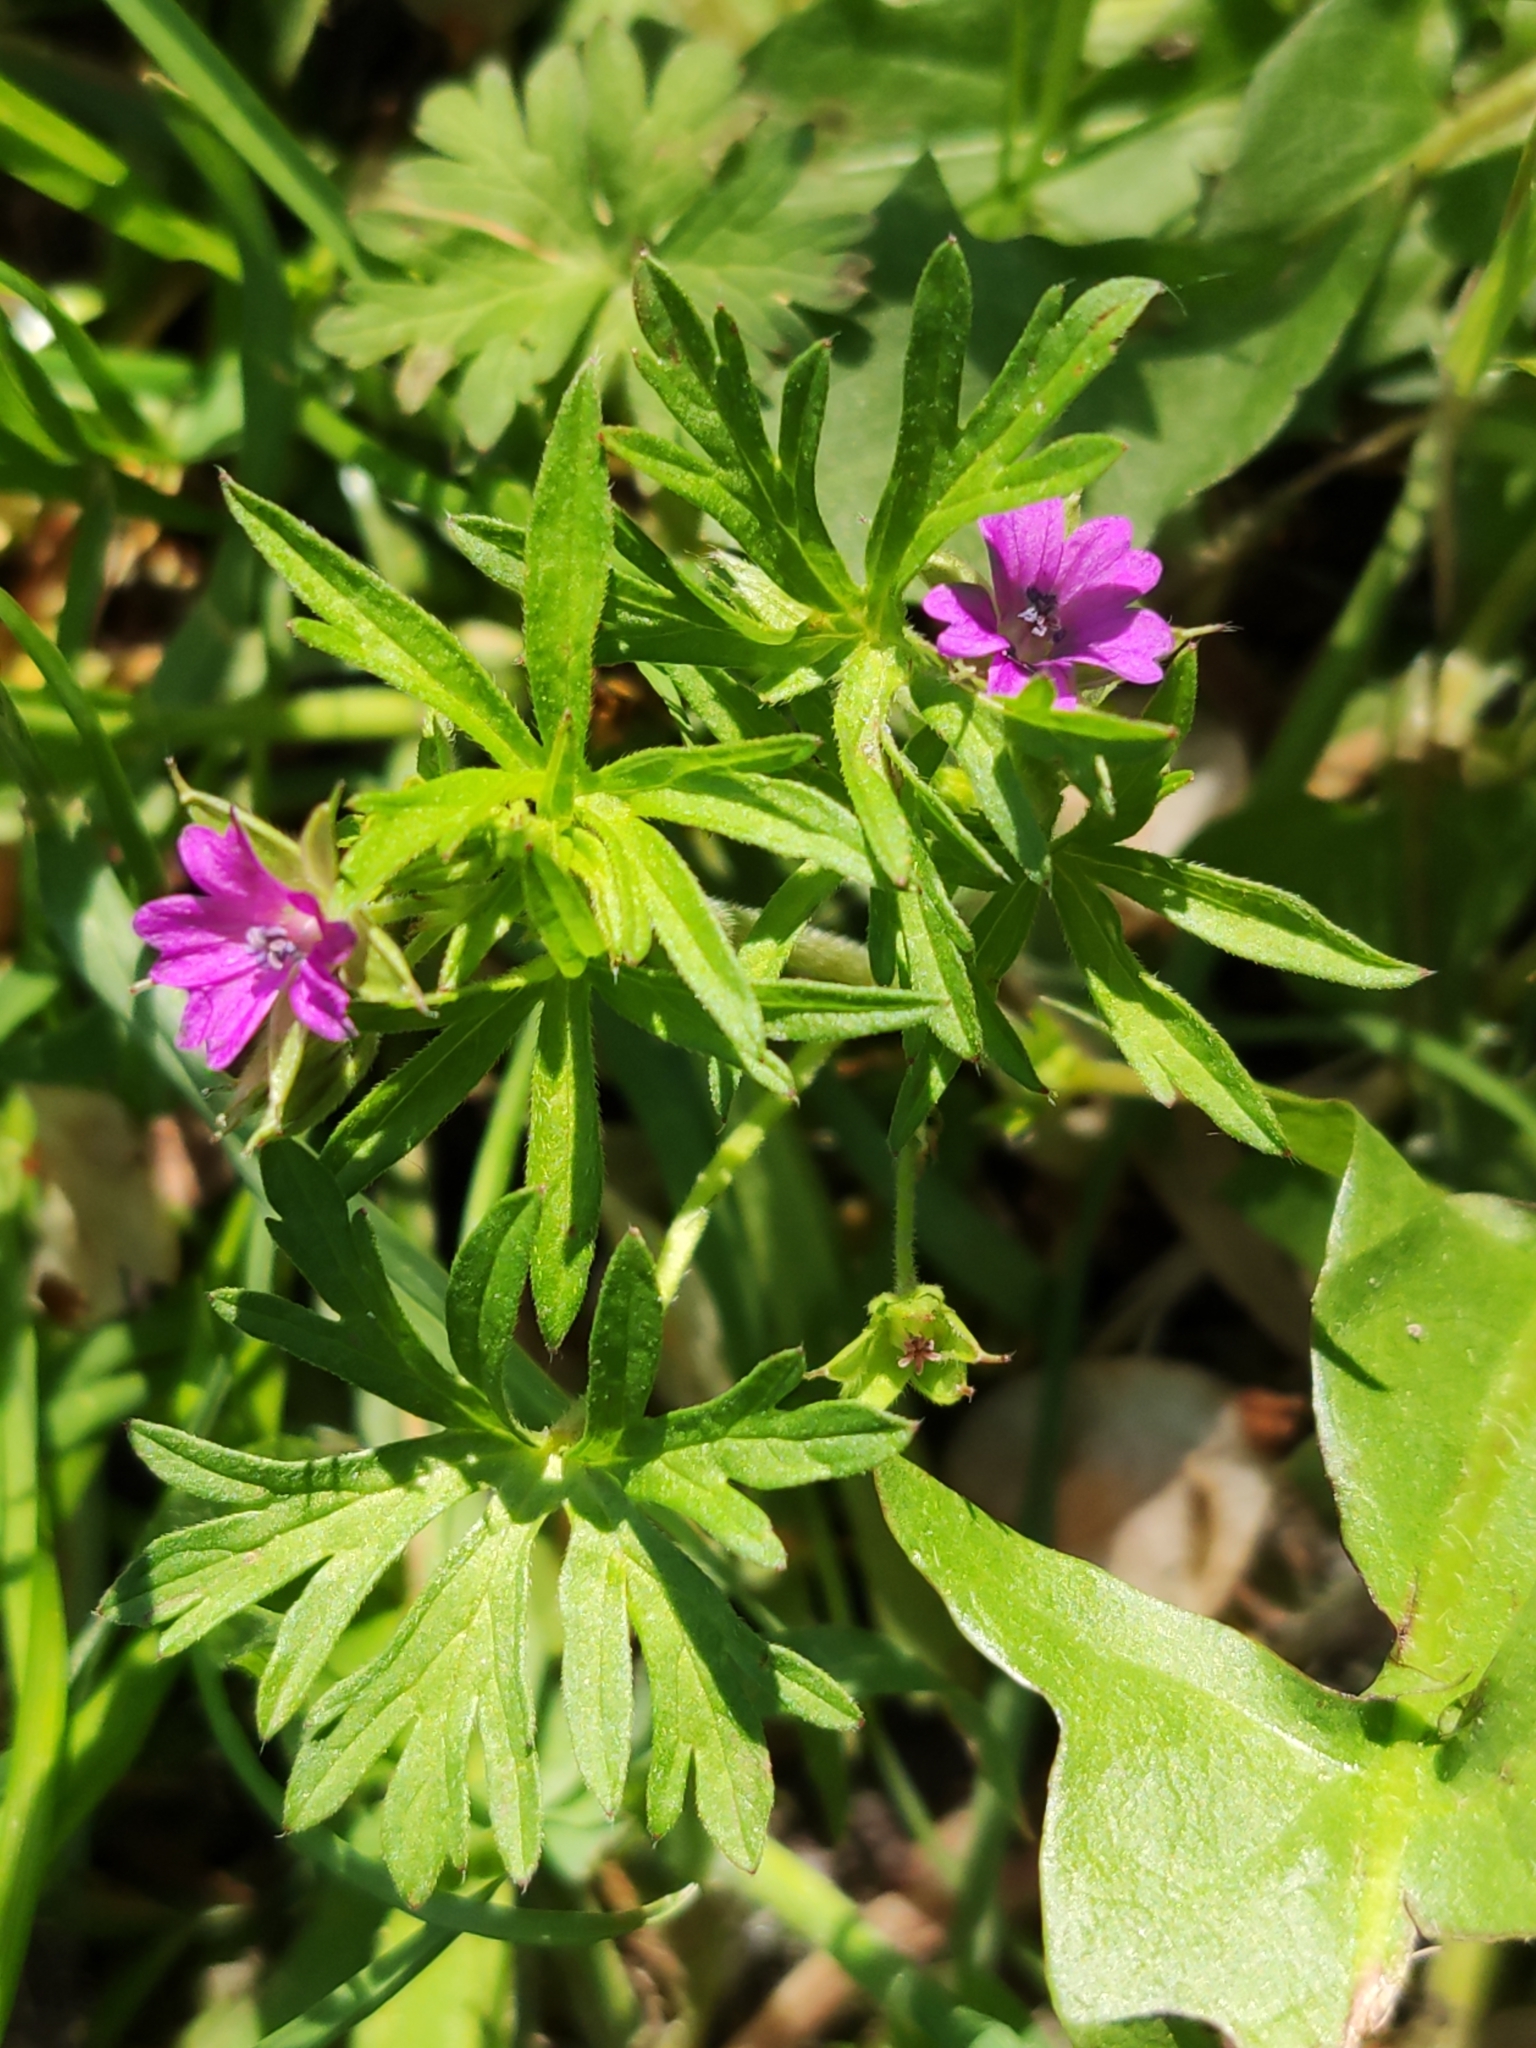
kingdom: Plantae
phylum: Tracheophyta
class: Magnoliopsida
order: Geraniales
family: Geraniaceae
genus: Geranium
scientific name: Geranium dissectum
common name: Cut-leaved crane's-bill
